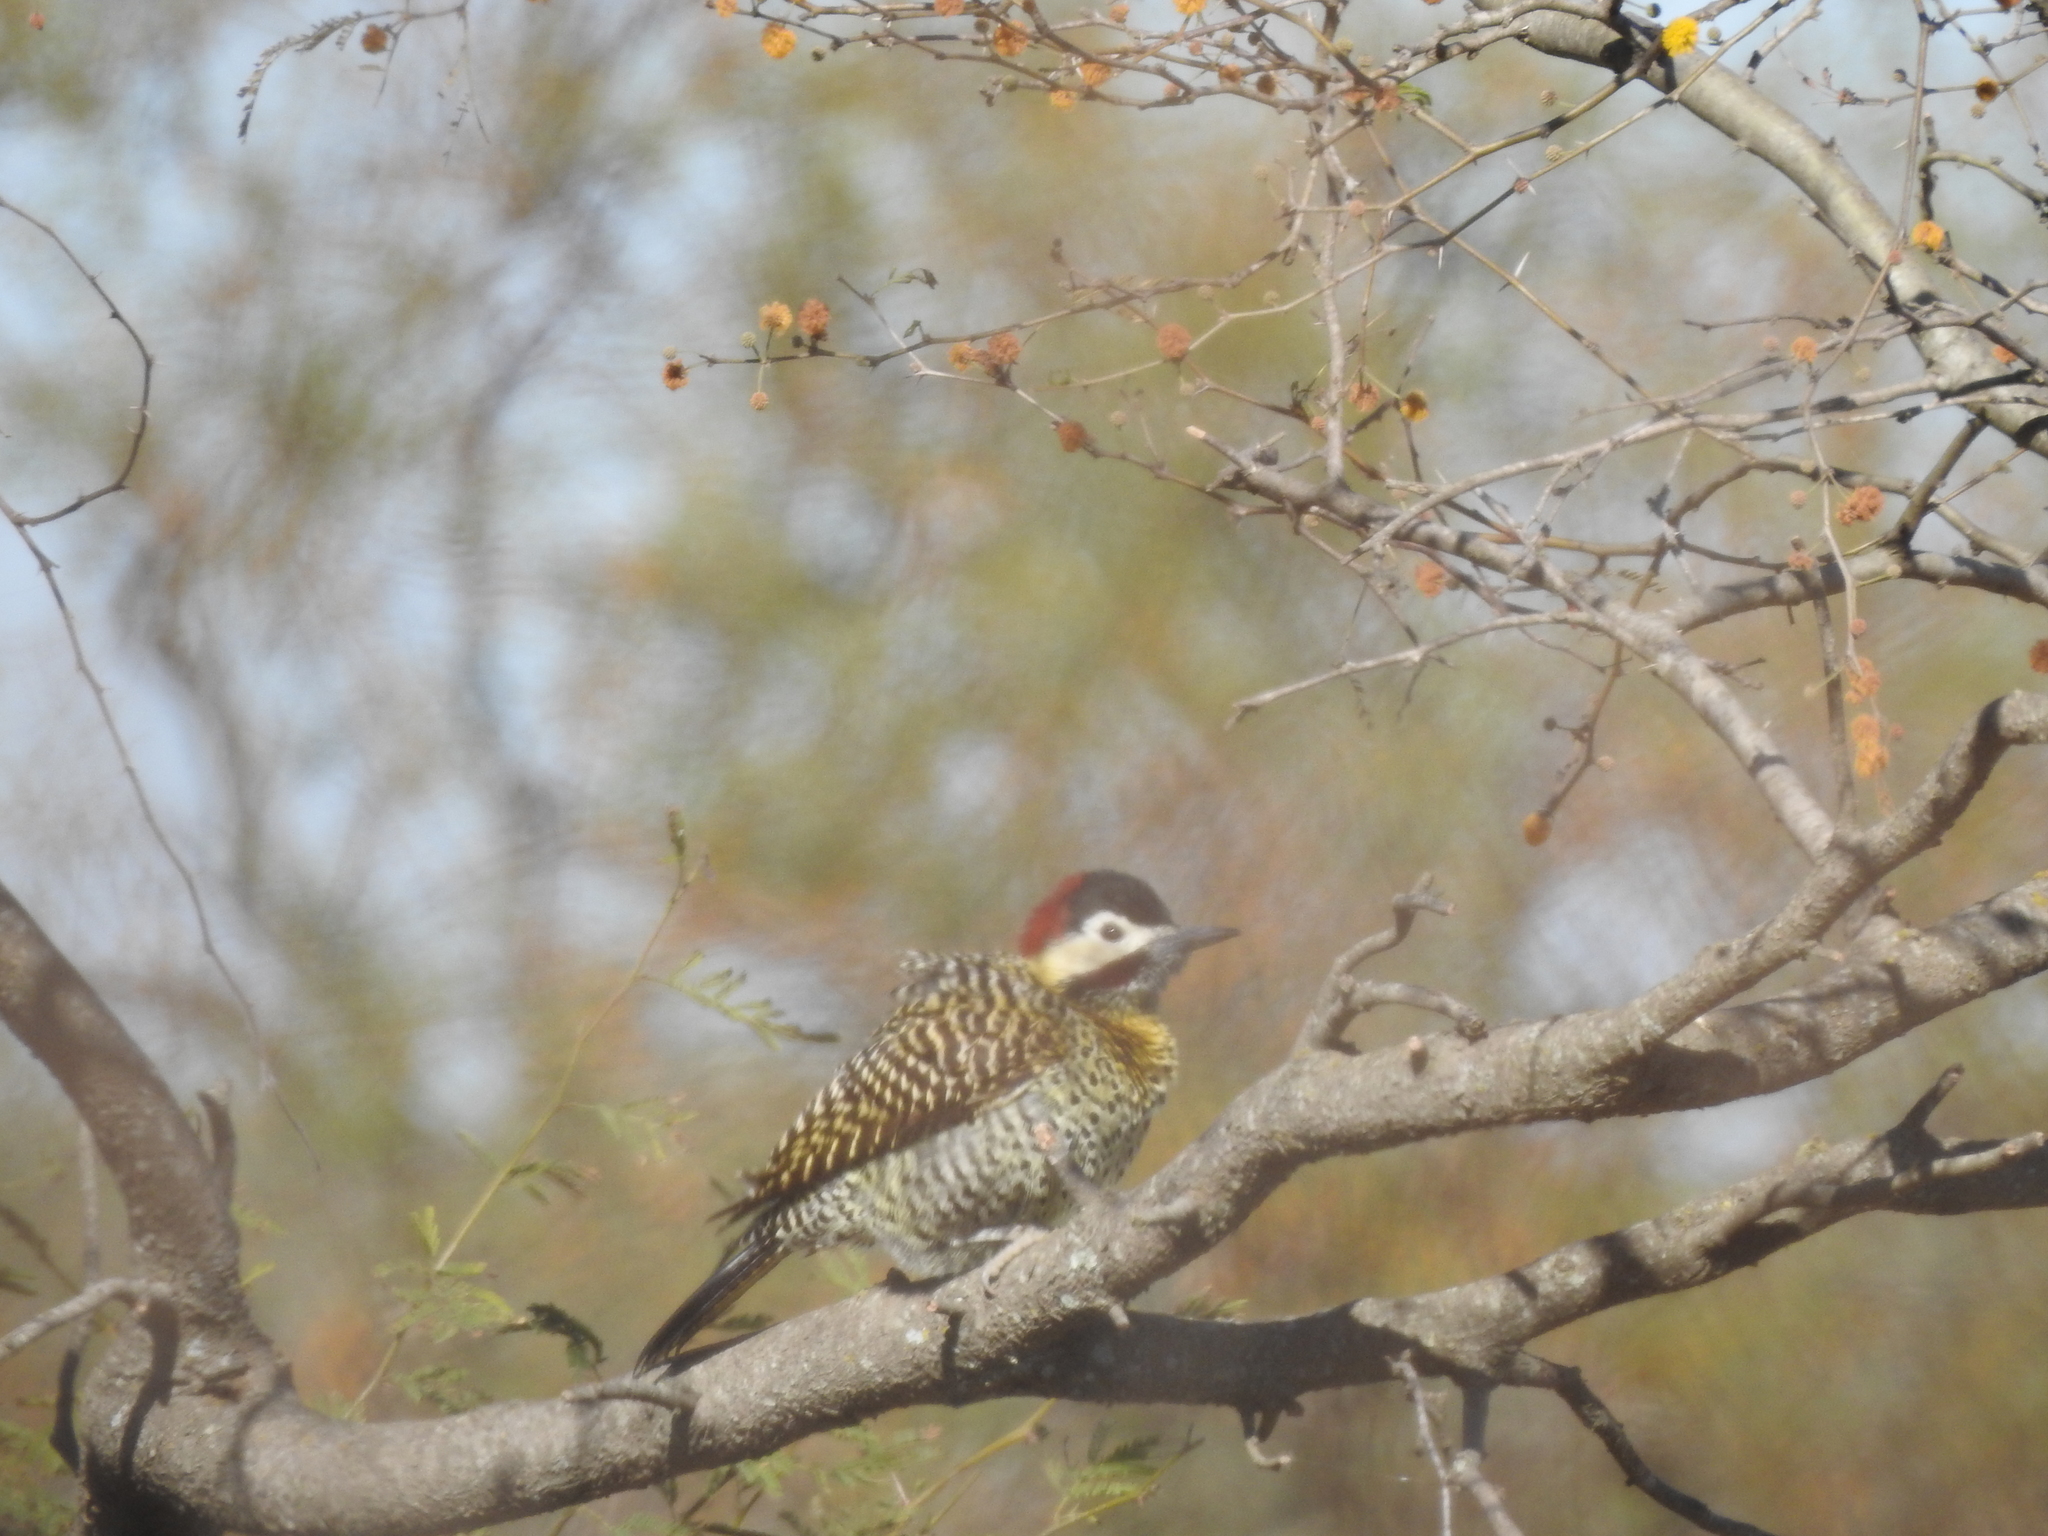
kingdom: Animalia
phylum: Chordata
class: Aves
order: Piciformes
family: Picidae
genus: Colaptes
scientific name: Colaptes melanochloros
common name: Green-barred woodpecker
